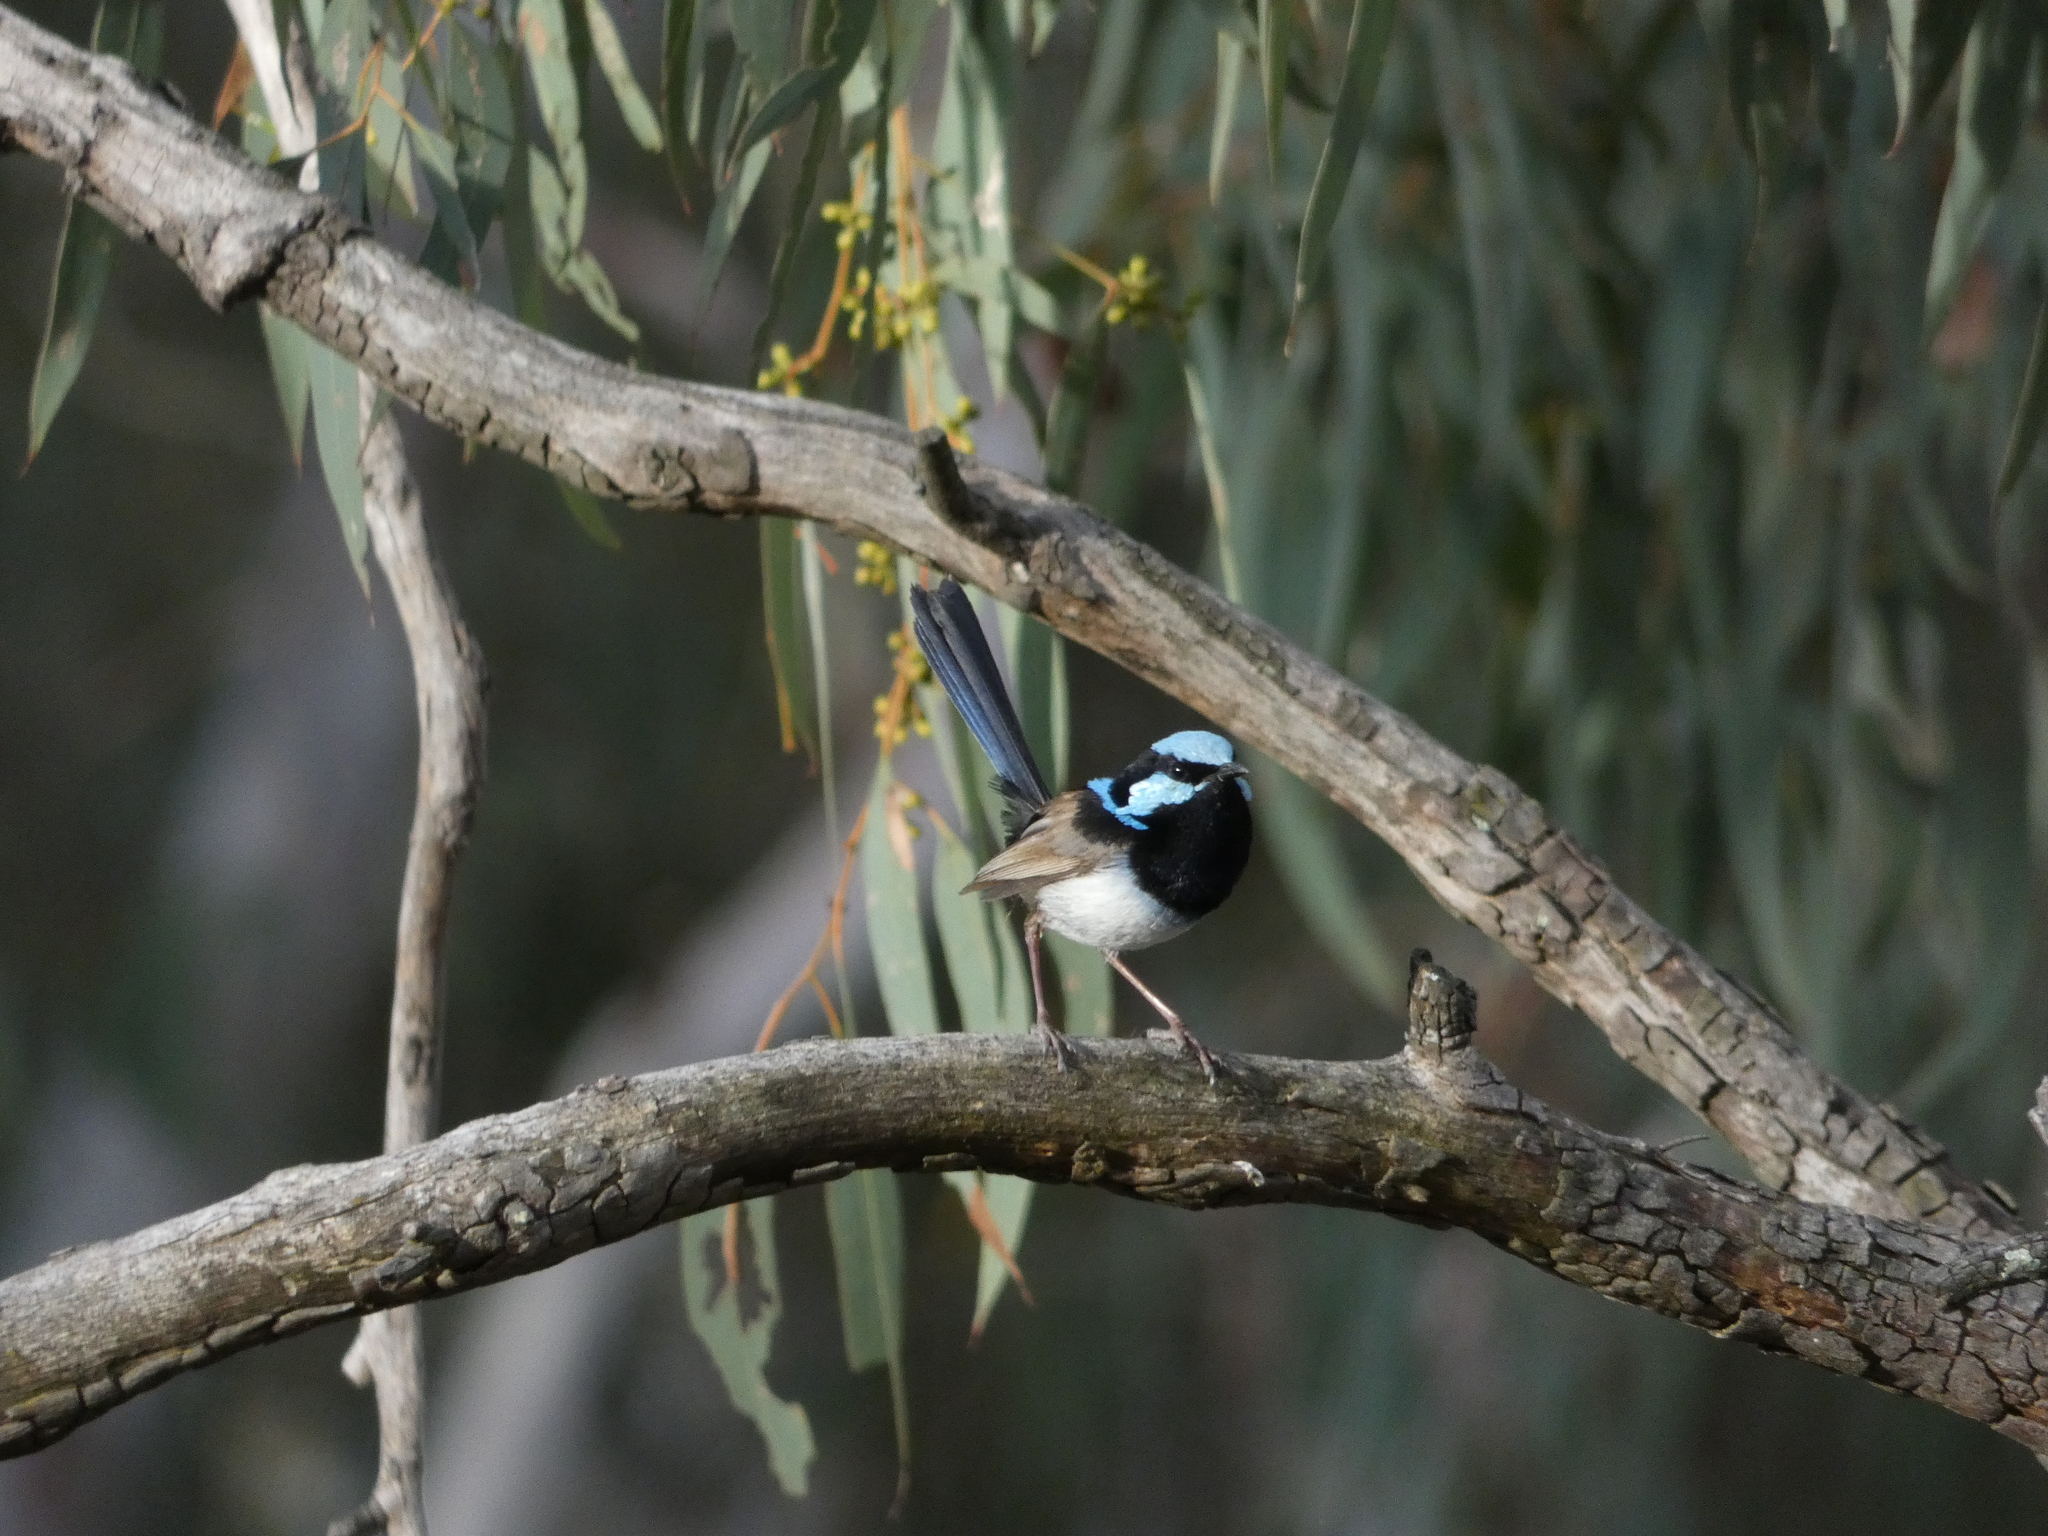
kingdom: Animalia
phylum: Chordata
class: Aves
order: Passeriformes
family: Maluridae
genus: Malurus
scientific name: Malurus cyaneus
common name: Superb fairywren
